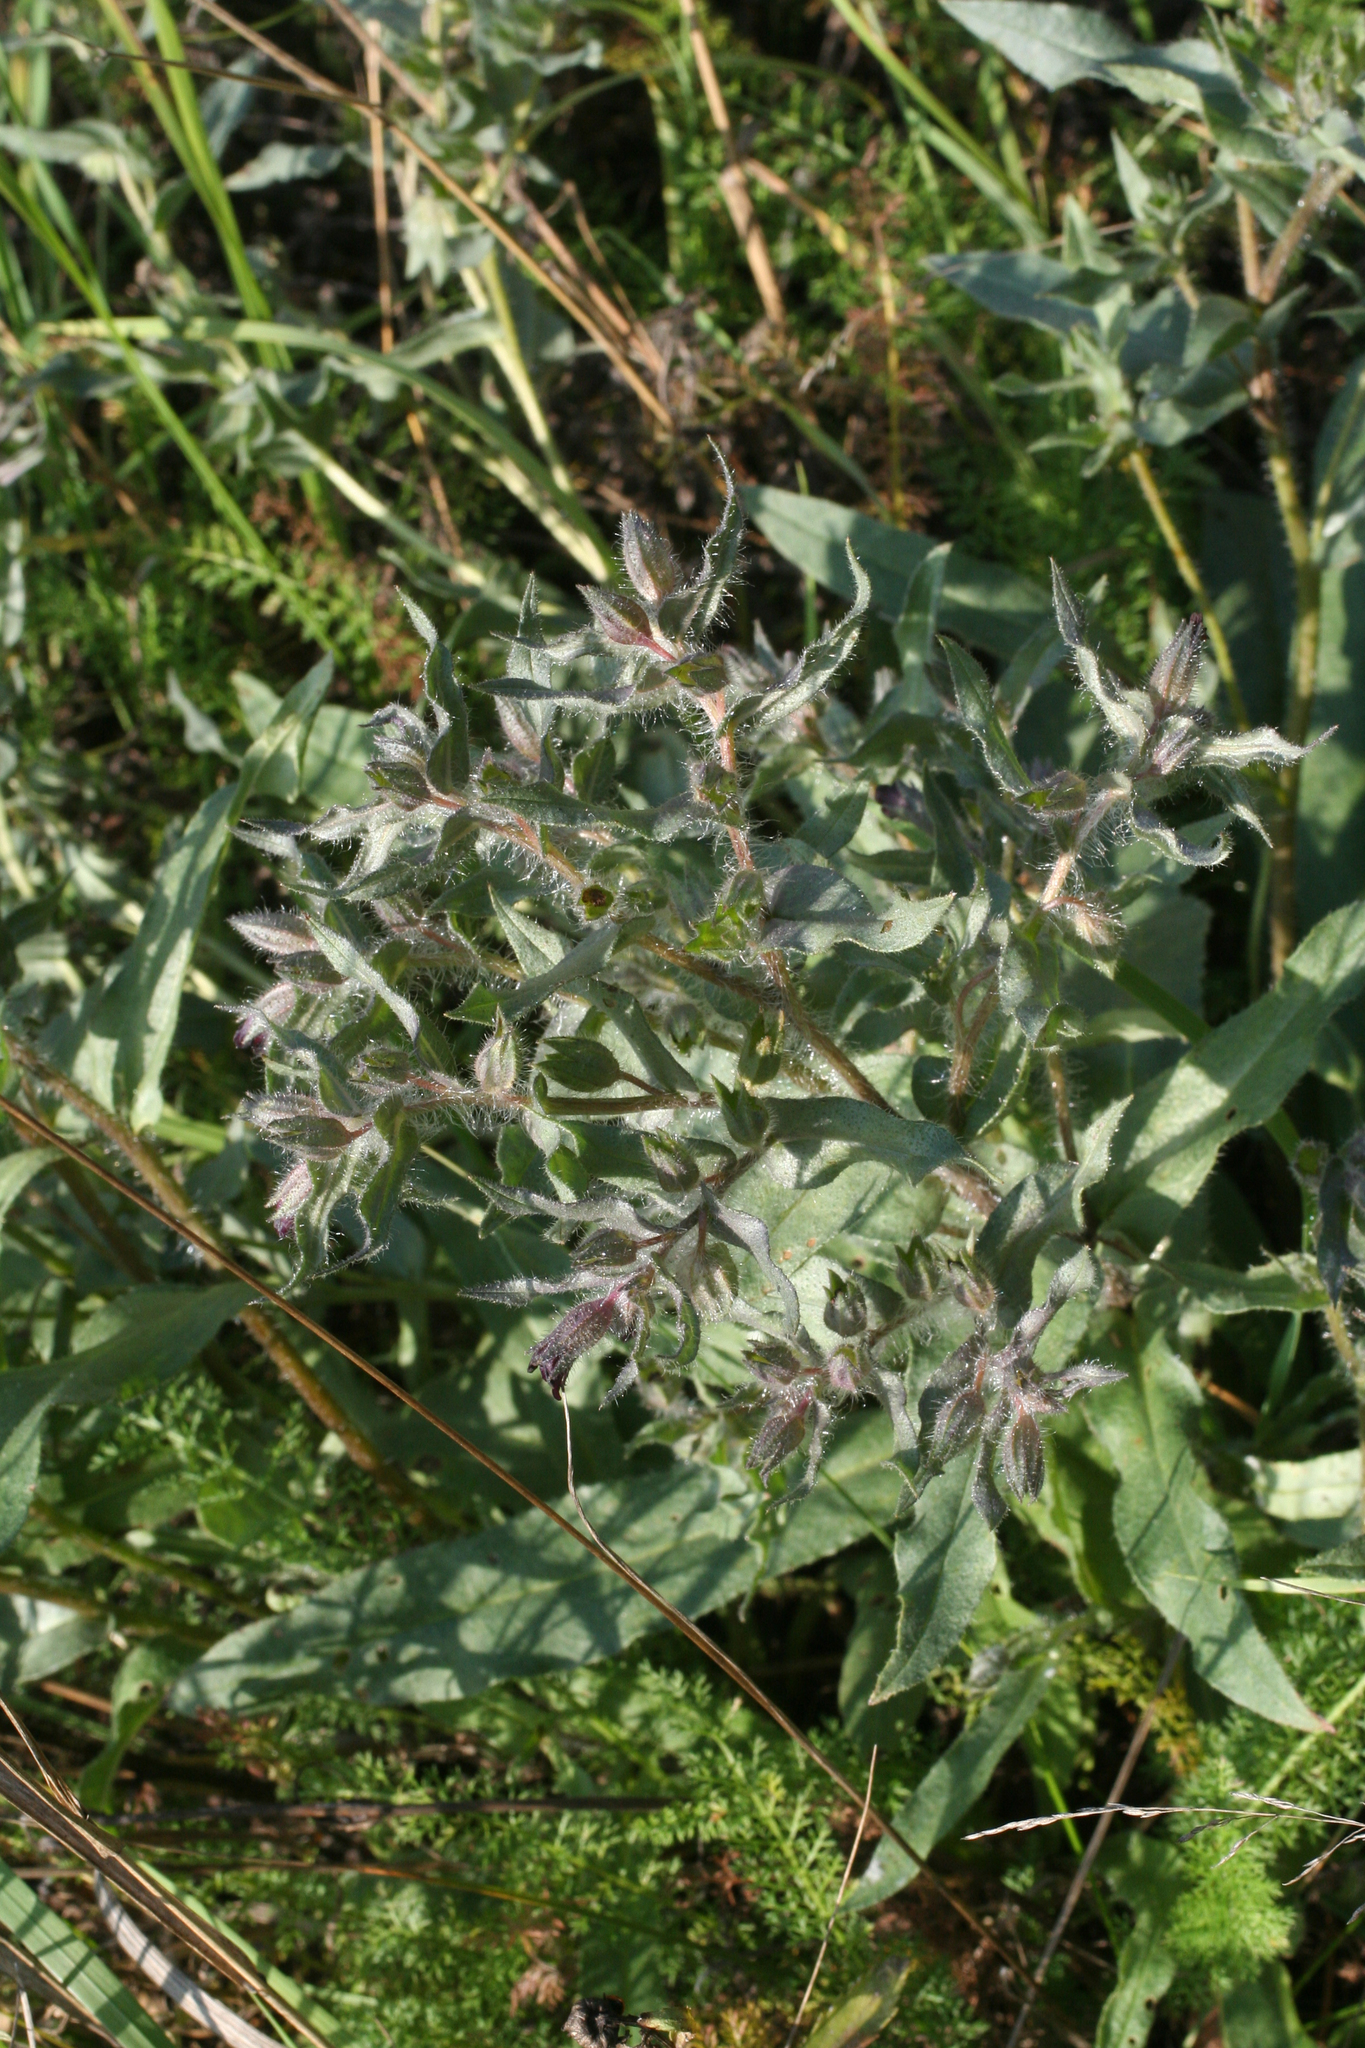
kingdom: Plantae
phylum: Tracheophyta
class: Magnoliopsida
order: Boraginales
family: Boraginaceae
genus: Nonea
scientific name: Nonea pulla
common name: Brown nonea
